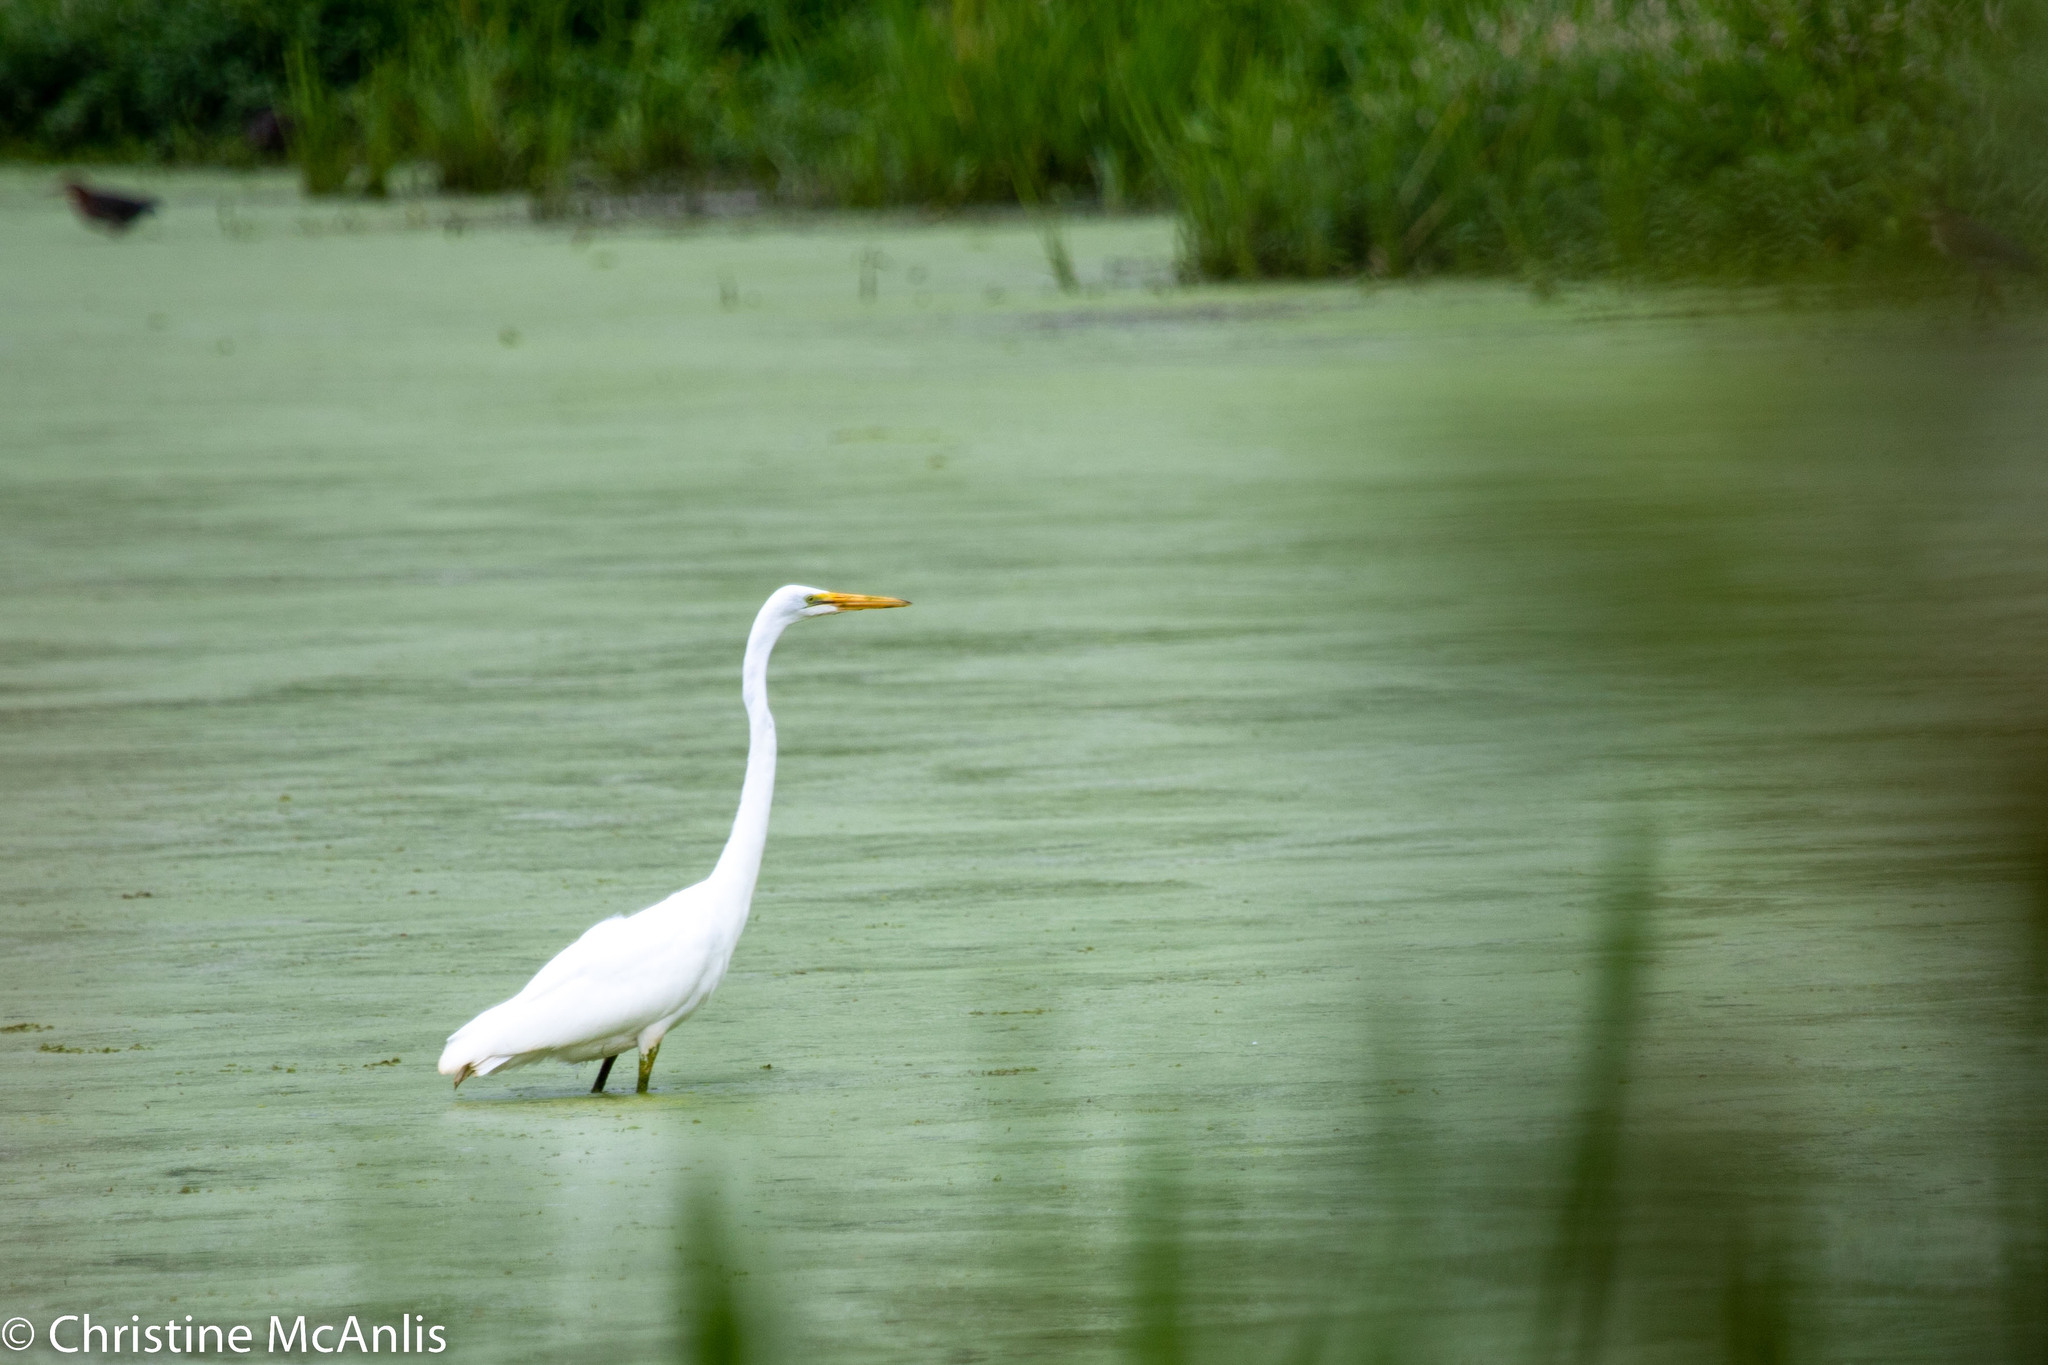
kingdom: Animalia
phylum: Chordata
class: Aves
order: Pelecaniformes
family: Ardeidae
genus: Ardea
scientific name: Ardea alba
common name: Great egret
